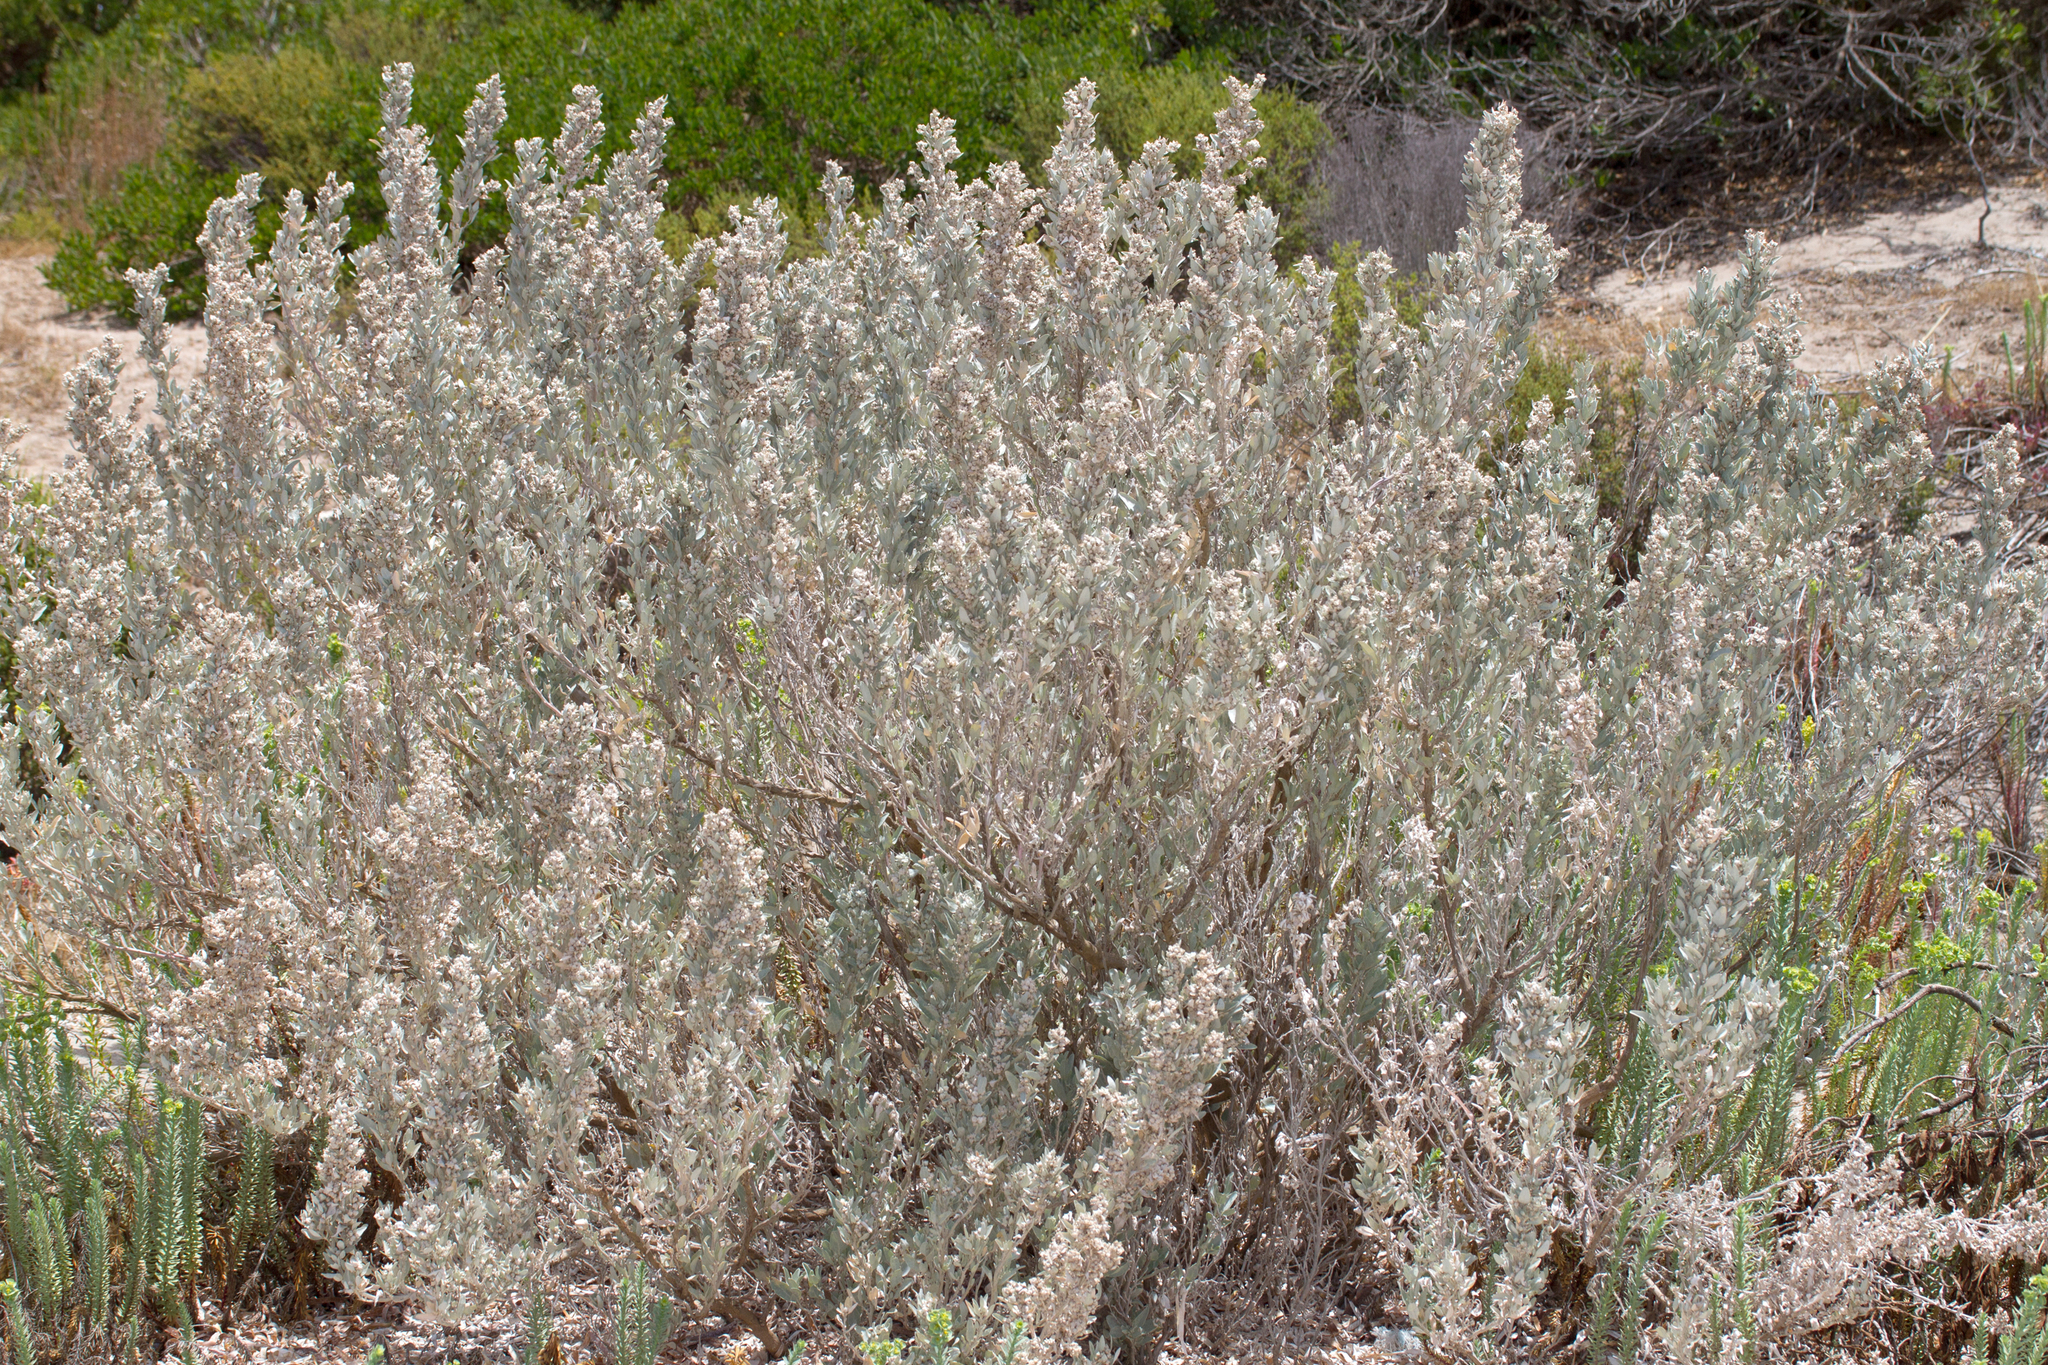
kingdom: Plantae
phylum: Tracheophyta
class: Magnoliopsida
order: Caryophyllales
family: Amaranthaceae
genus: Atriplex
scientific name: Atriplex cinerea
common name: Grey saltbush
